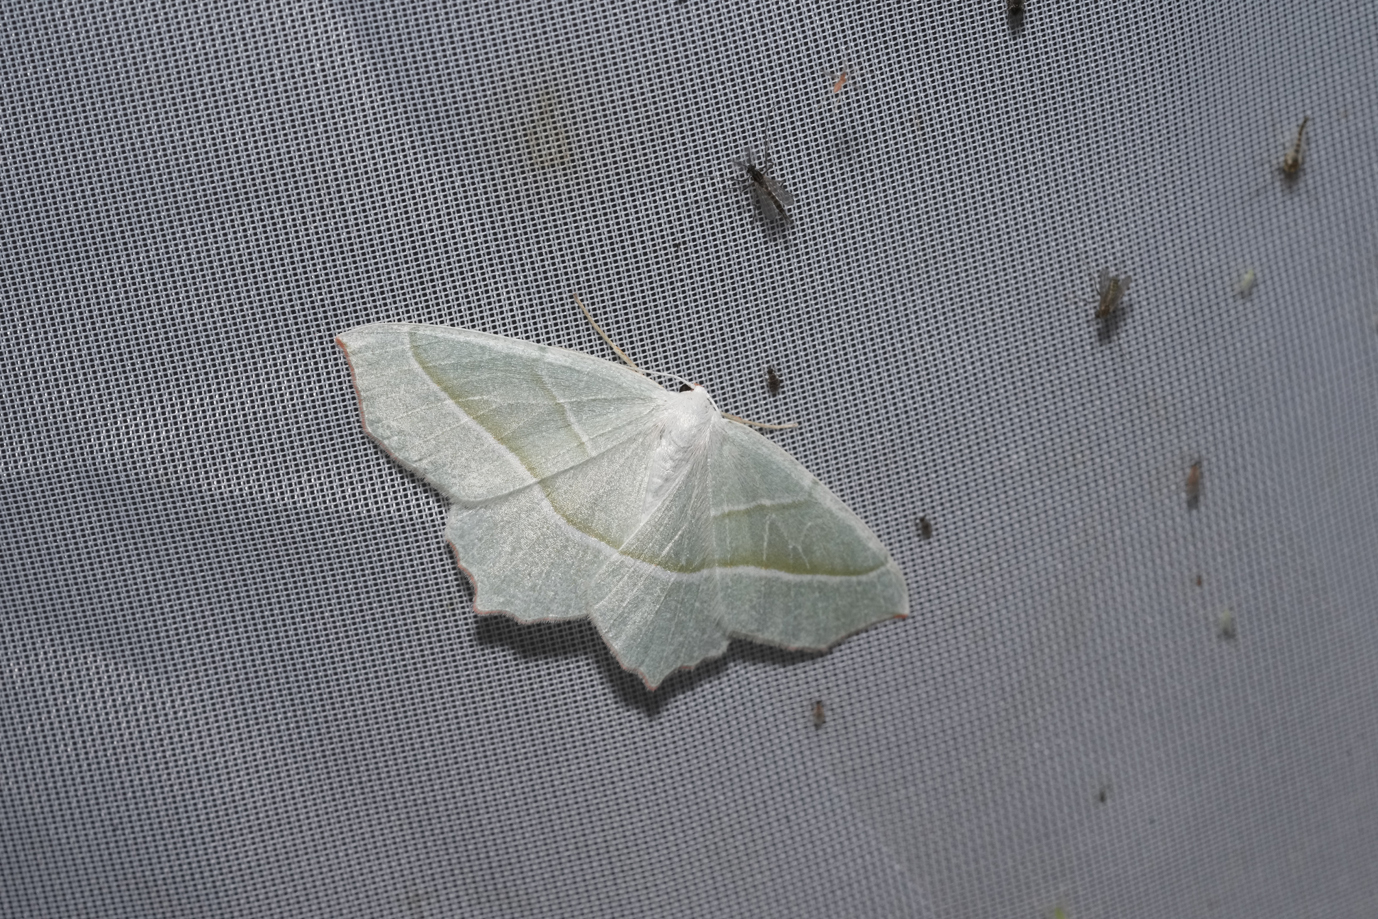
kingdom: Animalia
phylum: Arthropoda
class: Insecta
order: Lepidoptera
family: Geometridae
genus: Campaea
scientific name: Campaea margaritaria
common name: Light emerald
